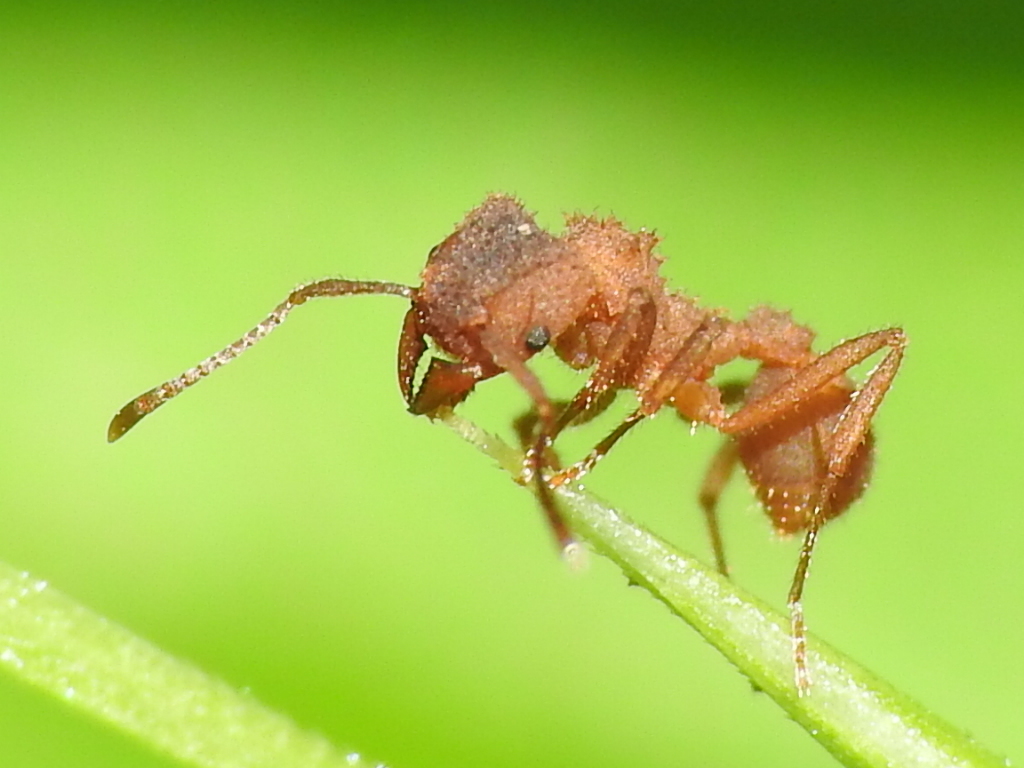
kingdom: Animalia
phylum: Arthropoda
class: Insecta
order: Hymenoptera
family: Formicidae
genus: Trachymyrmex
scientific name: Trachymyrmex septentrionalis
